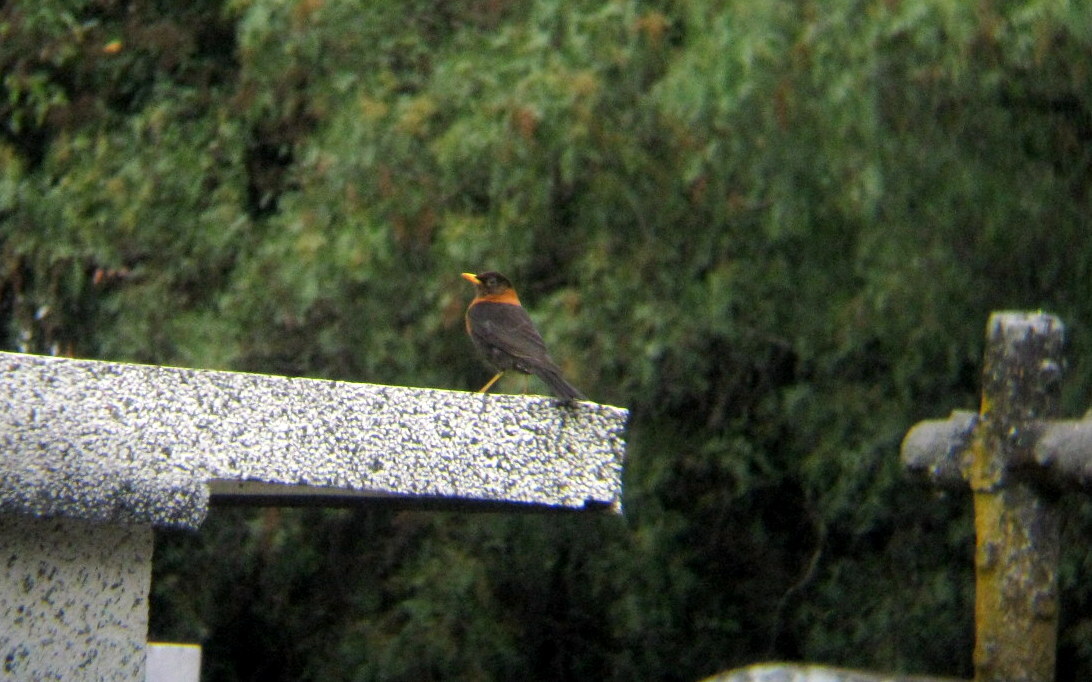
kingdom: Animalia
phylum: Chordata
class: Aves
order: Passeriformes
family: Turdidae
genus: Turdus
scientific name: Turdus rufitorques
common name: Rufous-collared thrush
